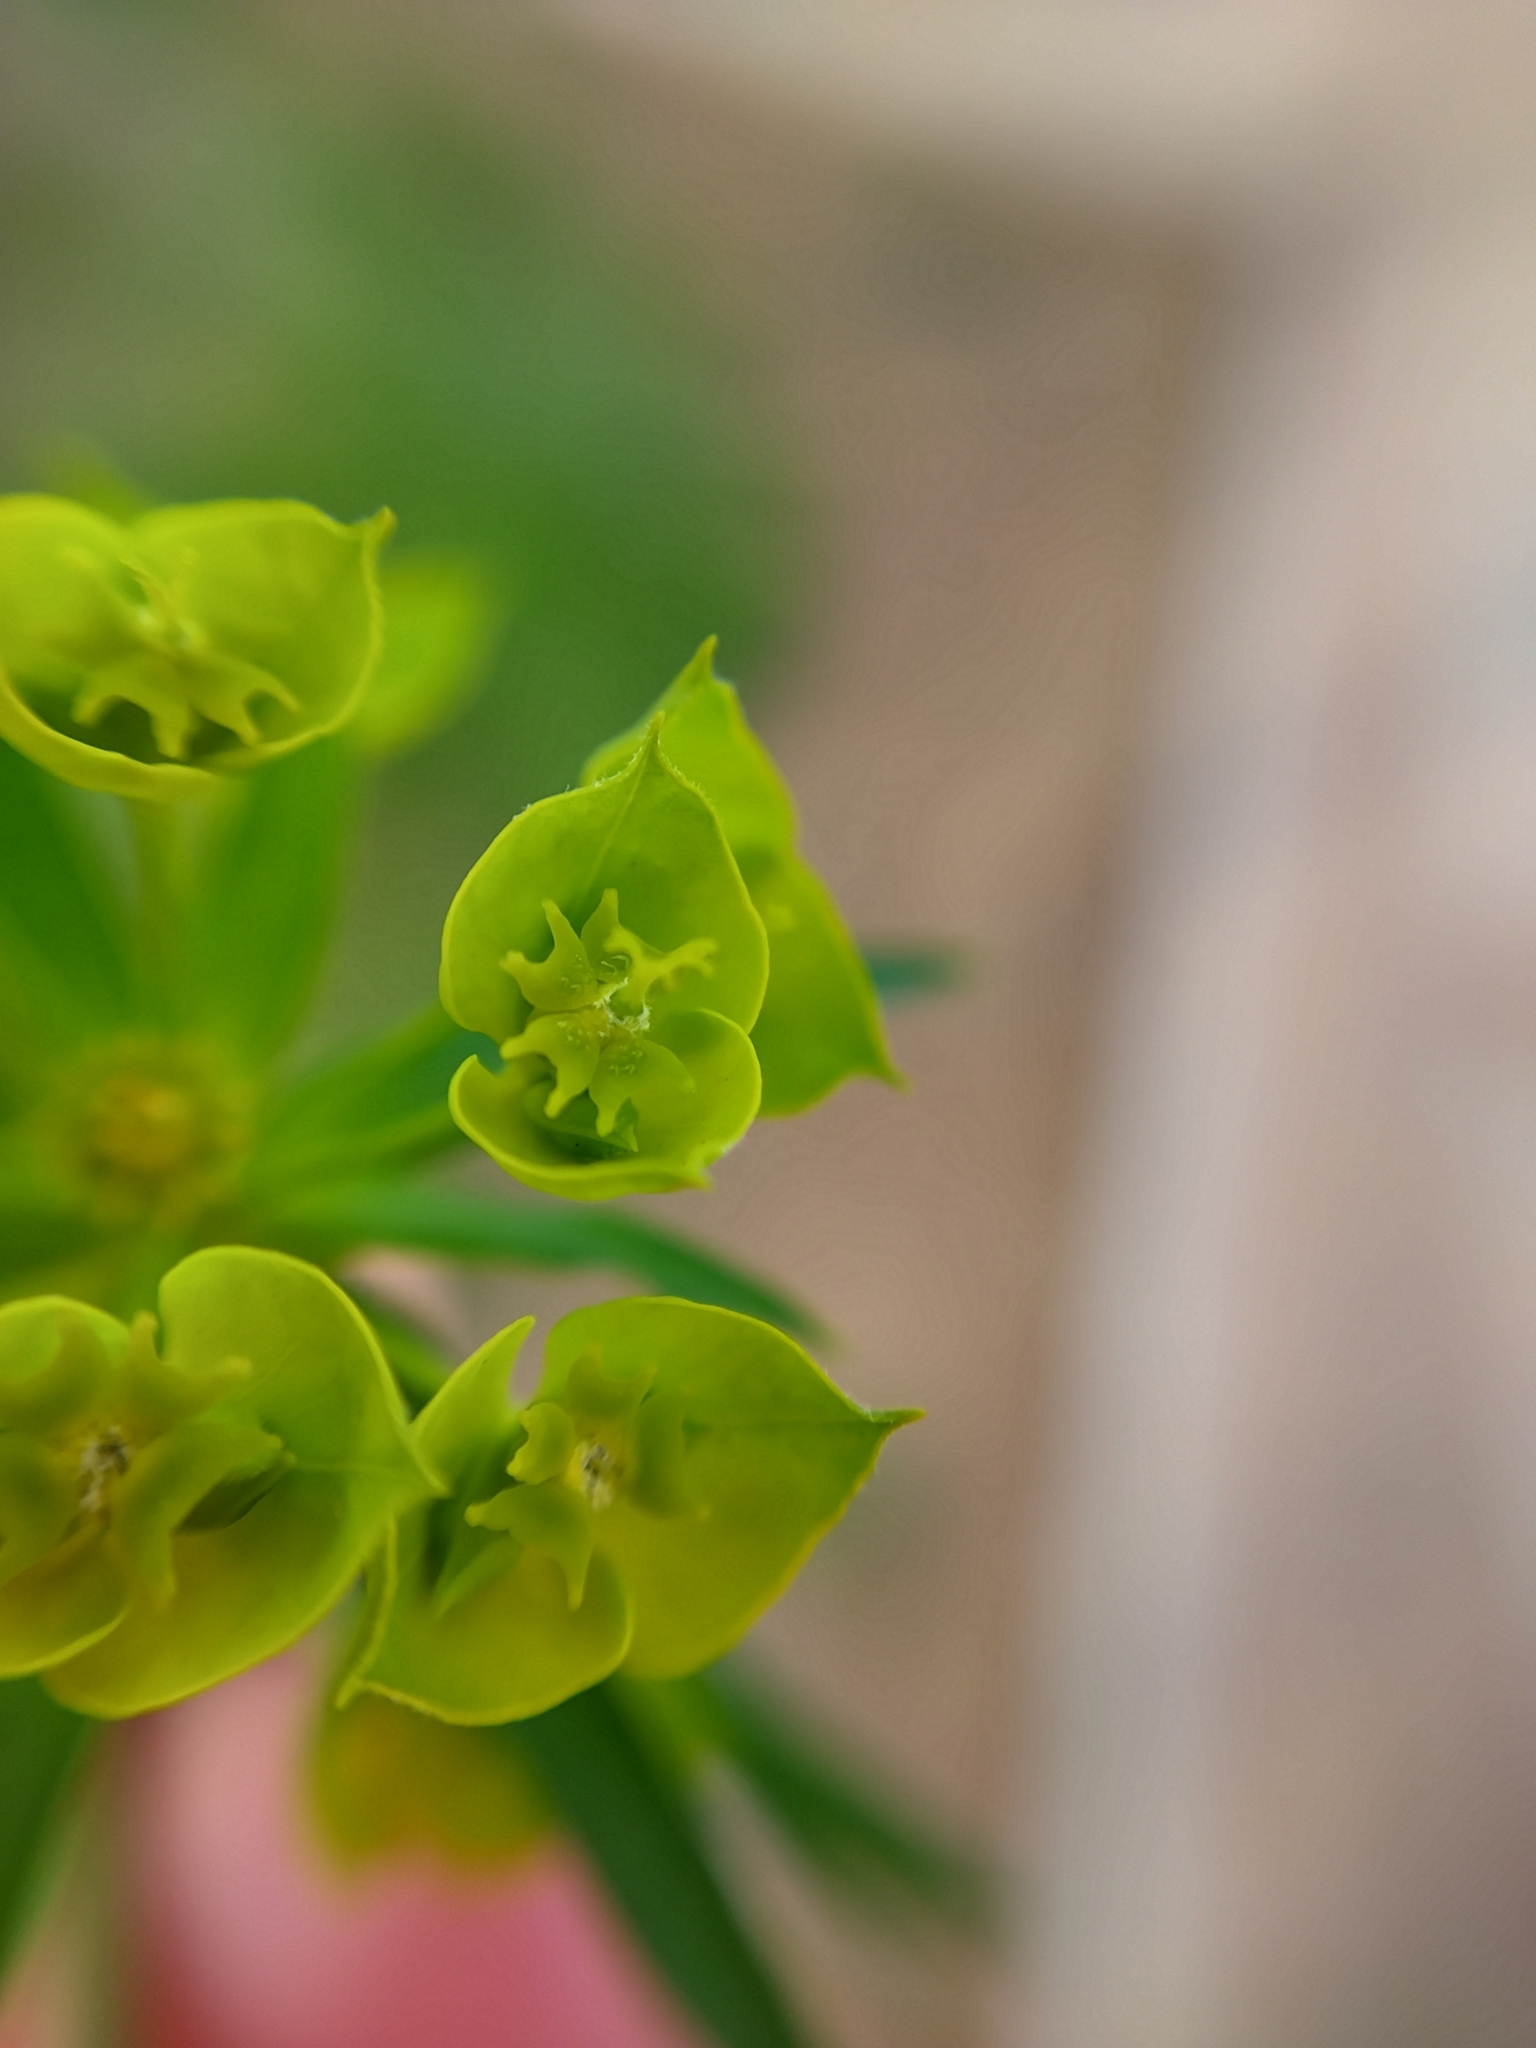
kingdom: Plantae
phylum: Tracheophyta
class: Magnoliopsida
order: Malpighiales
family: Euphorbiaceae
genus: Euphorbia
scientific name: Euphorbia virgata
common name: Leafy spurge
